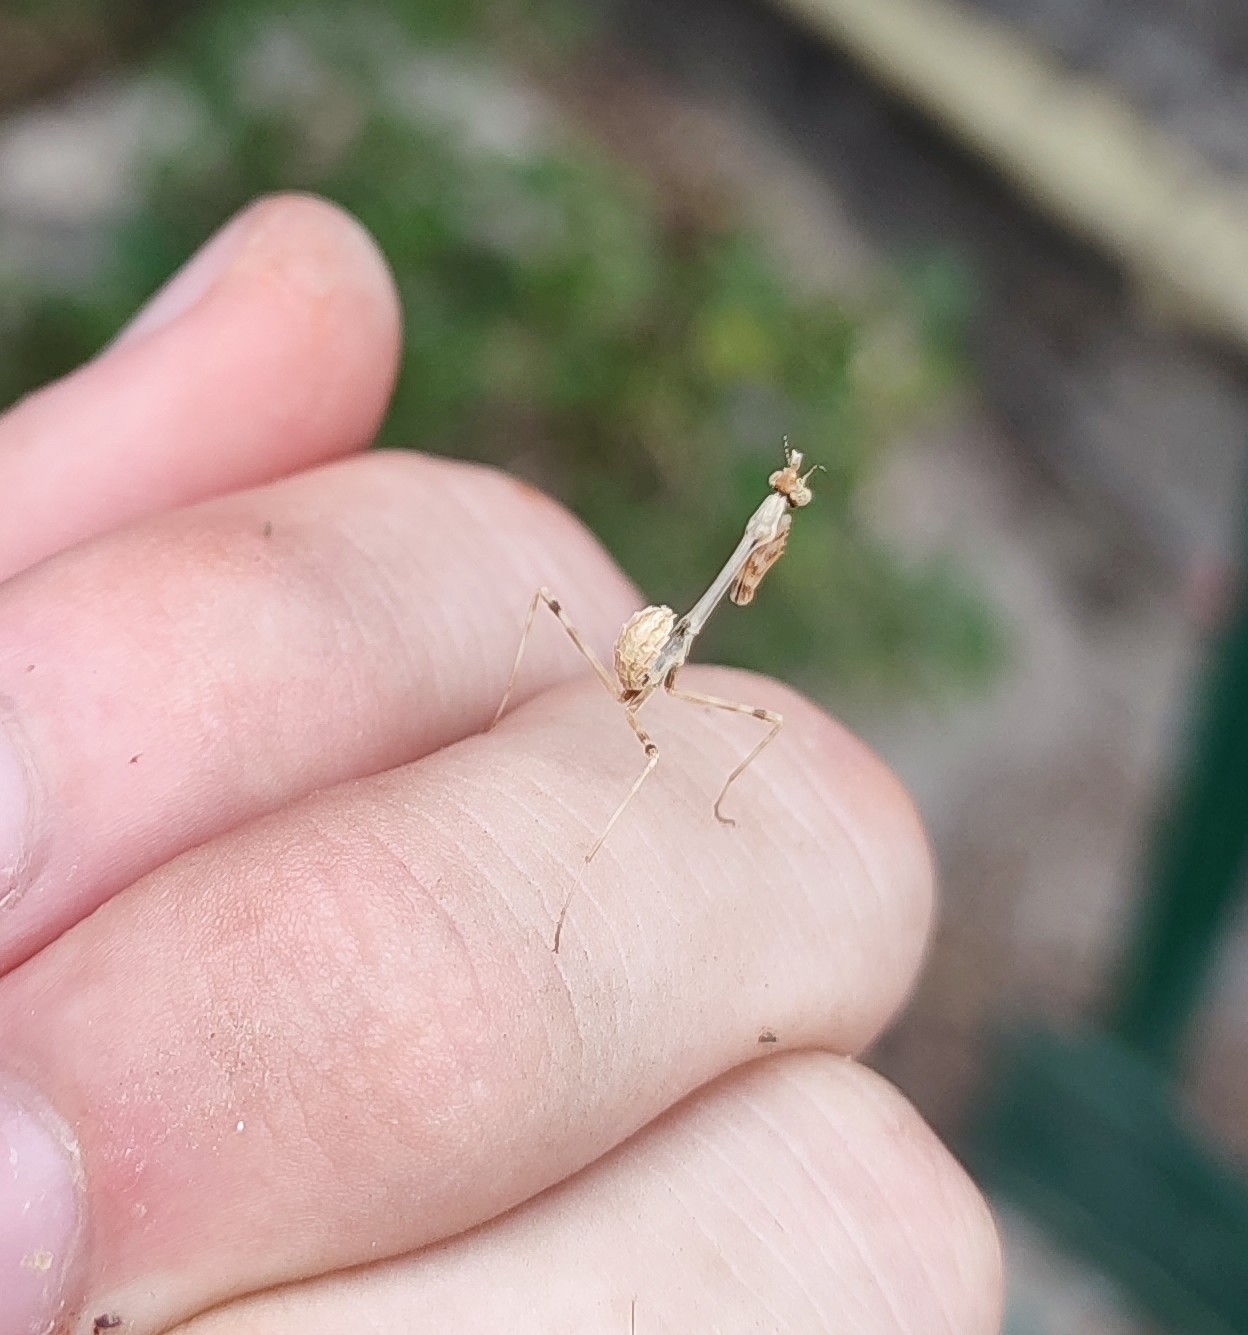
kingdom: Animalia
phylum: Arthropoda
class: Insecta
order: Mantodea
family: Empusidae
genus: Empusa
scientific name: Empusa pennata
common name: Conehead mantis
